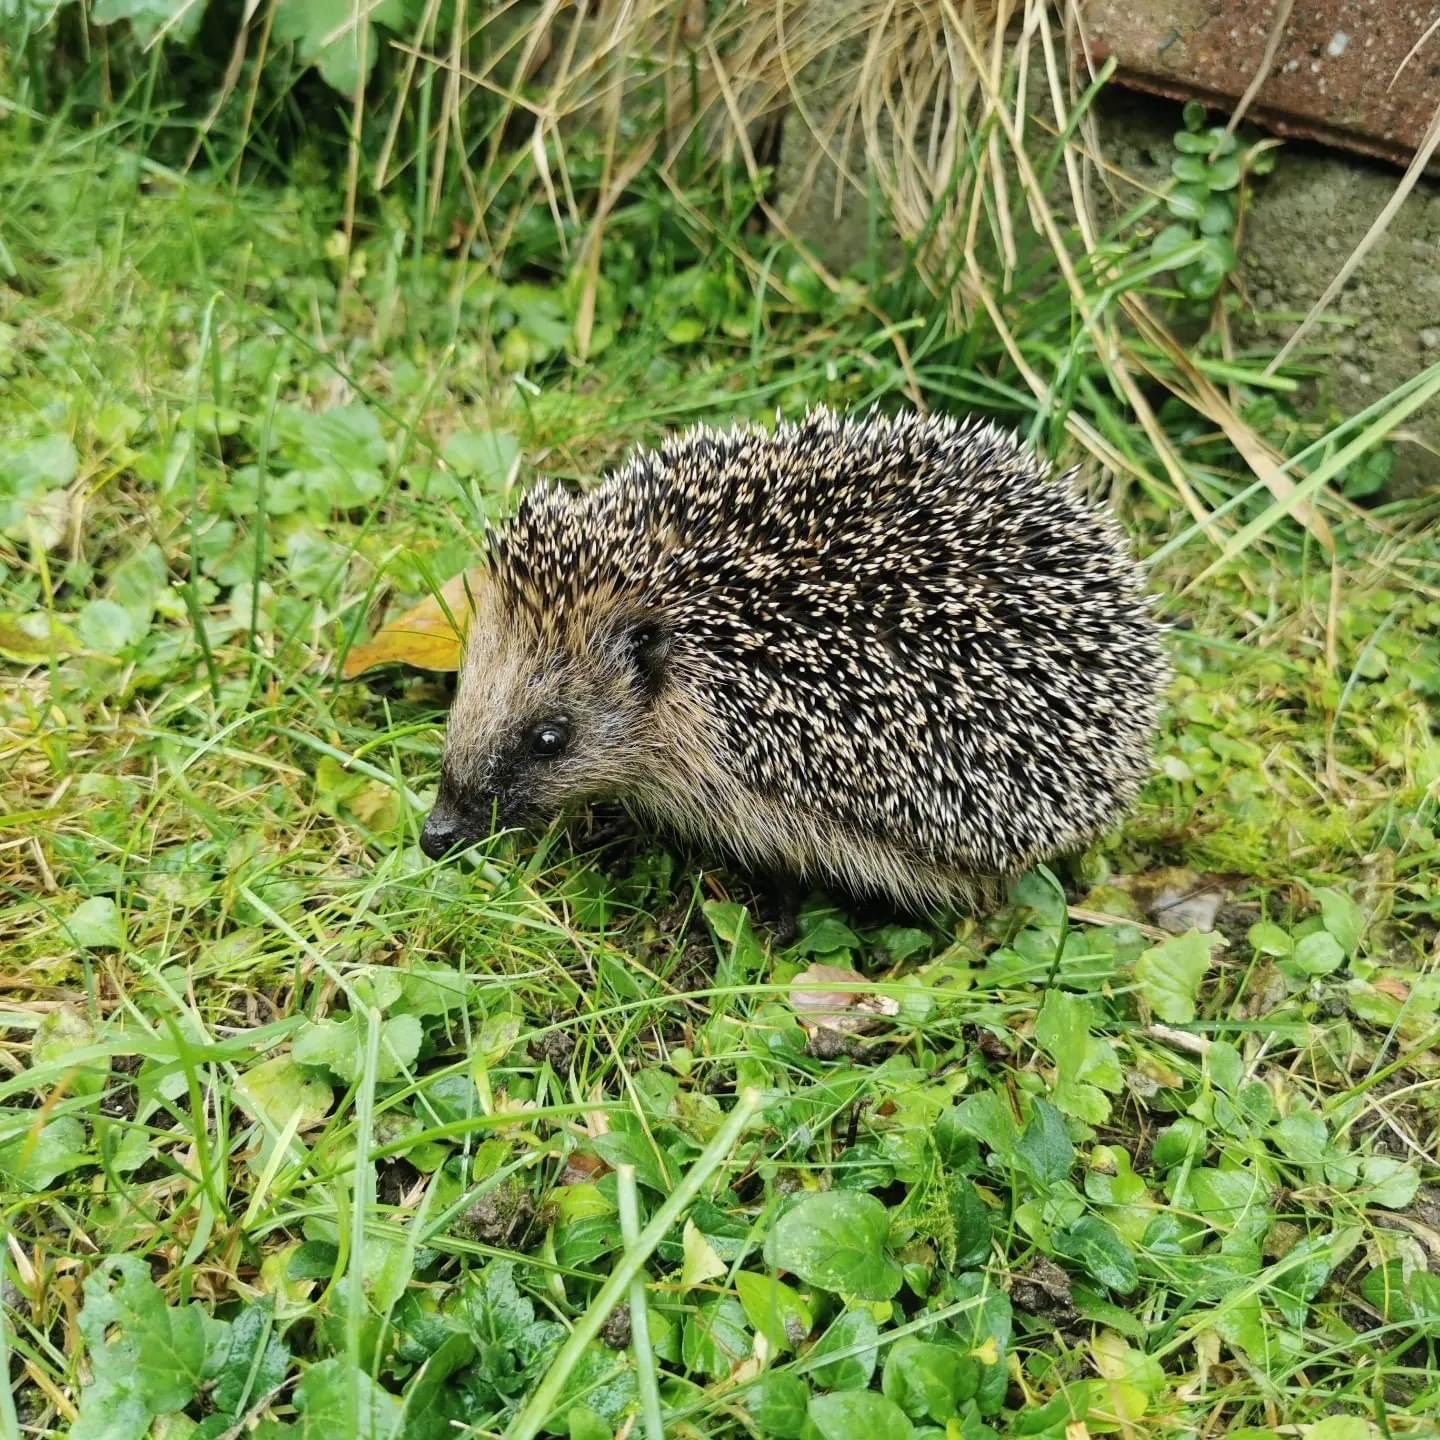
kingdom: Animalia
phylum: Chordata
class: Mammalia
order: Erinaceomorpha
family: Erinaceidae
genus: Erinaceus
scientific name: Erinaceus europaeus
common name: West european hedgehog
